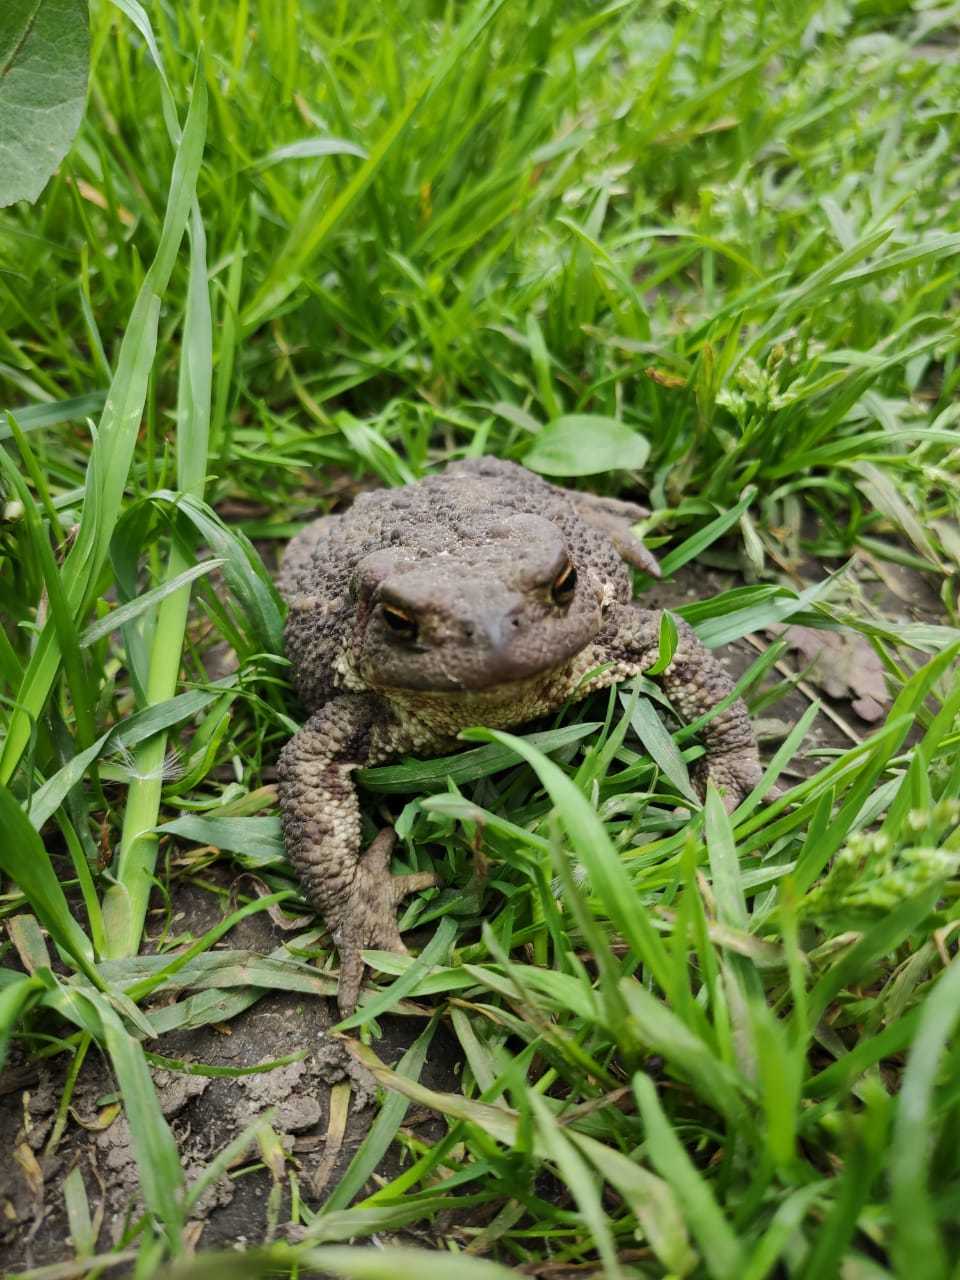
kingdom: Animalia
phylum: Chordata
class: Amphibia
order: Anura
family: Bufonidae
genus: Bufo
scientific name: Bufo bufo
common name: Common toad
